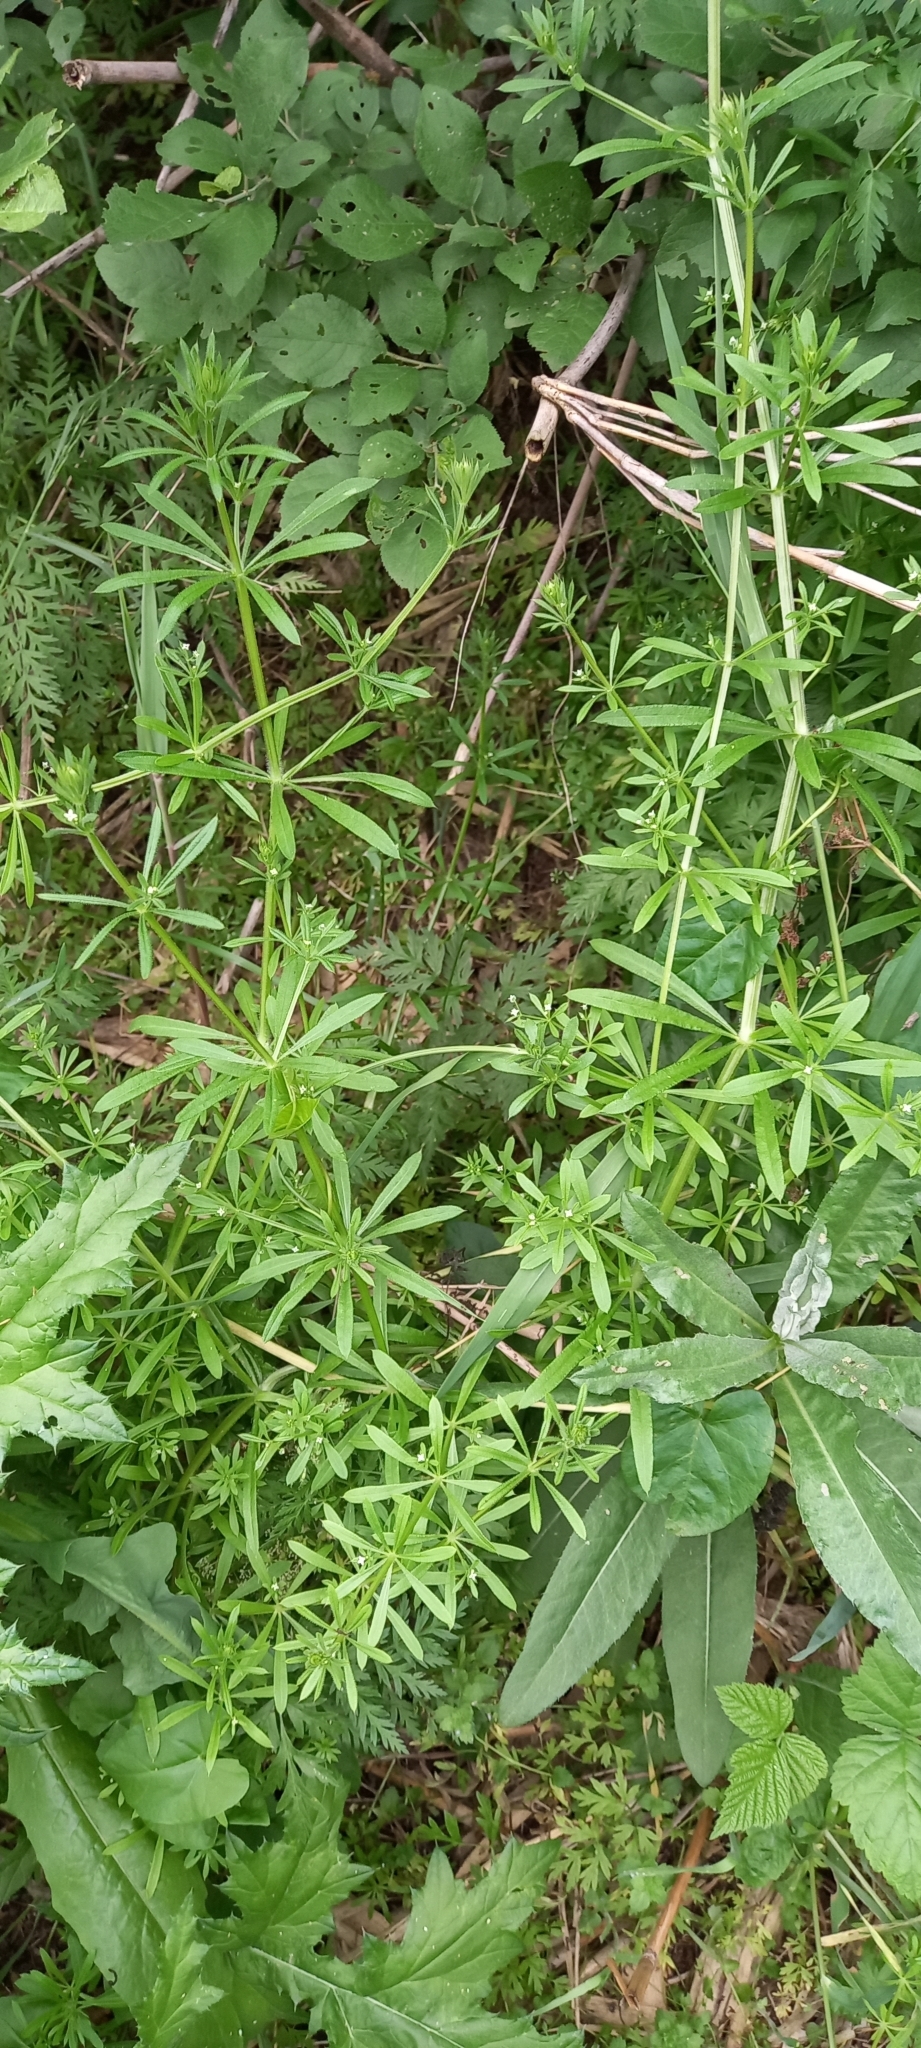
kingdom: Plantae
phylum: Tracheophyta
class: Magnoliopsida
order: Gentianales
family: Rubiaceae
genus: Galium
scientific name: Galium aparine
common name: Cleavers
